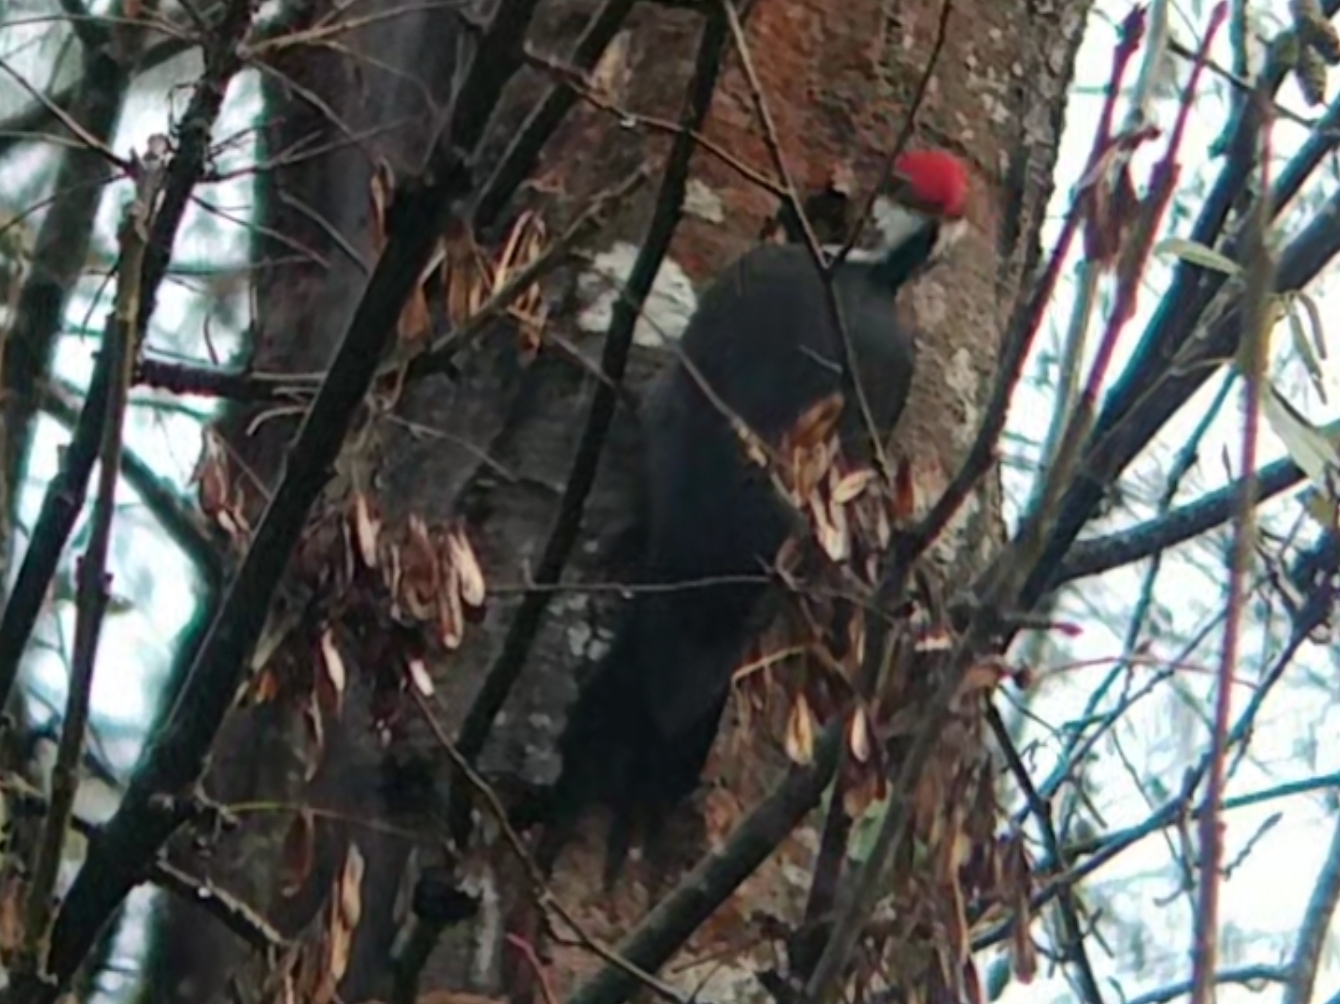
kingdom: Animalia
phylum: Chordata
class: Aves
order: Piciformes
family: Picidae
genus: Dryocopus
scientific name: Dryocopus pileatus
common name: Pileated woodpecker
